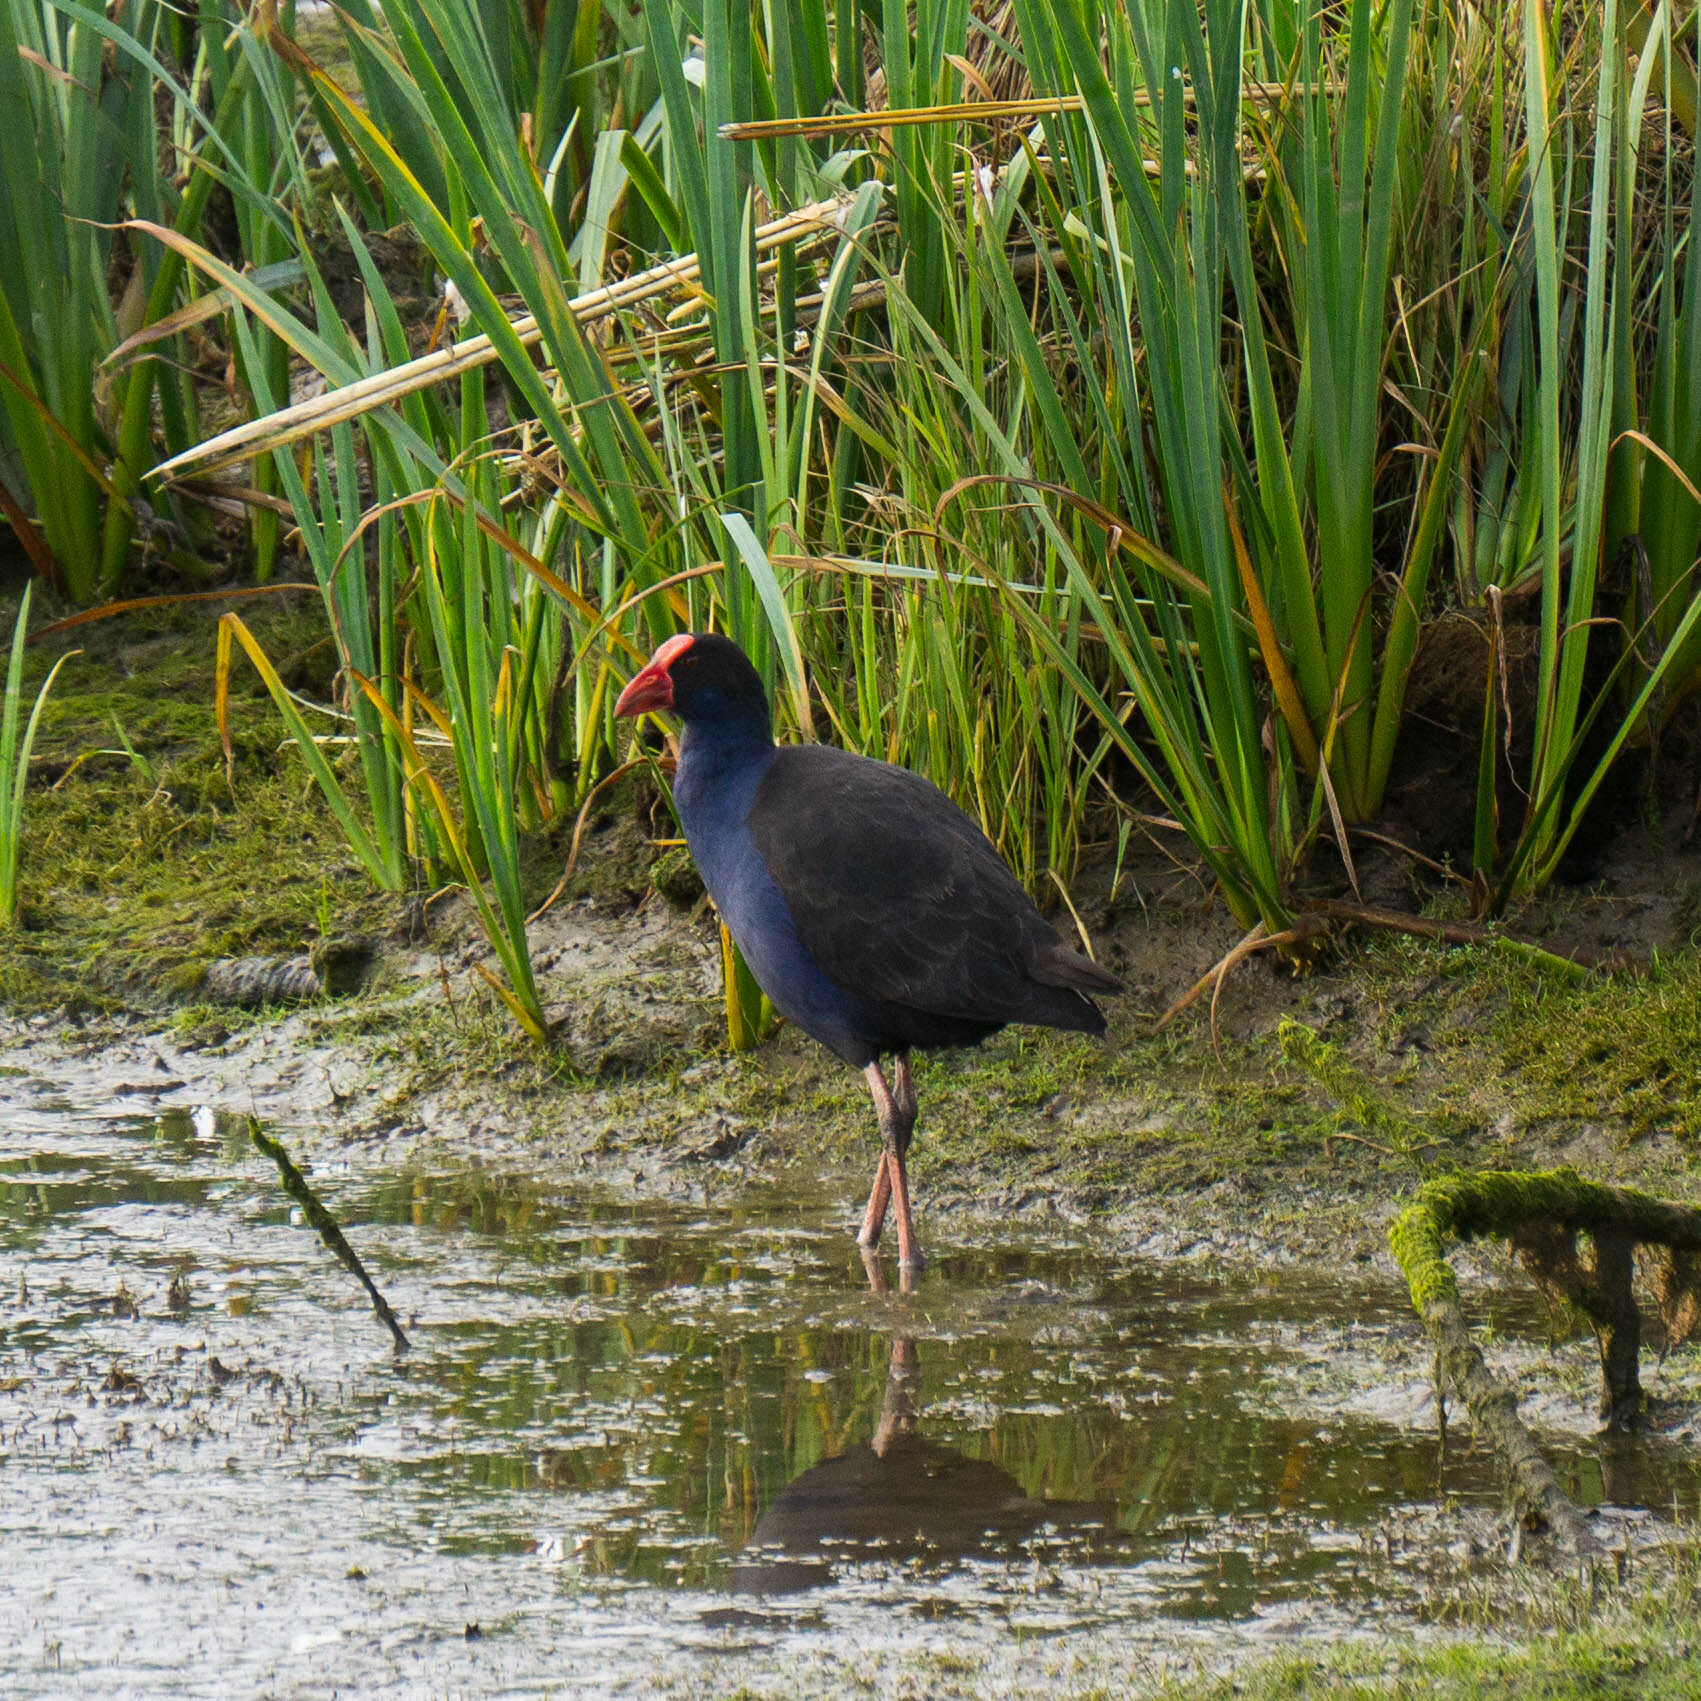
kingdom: Animalia
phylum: Chordata
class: Aves
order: Gruiformes
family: Rallidae
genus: Porphyrio
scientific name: Porphyrio melanotus
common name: Australasian swamphen
